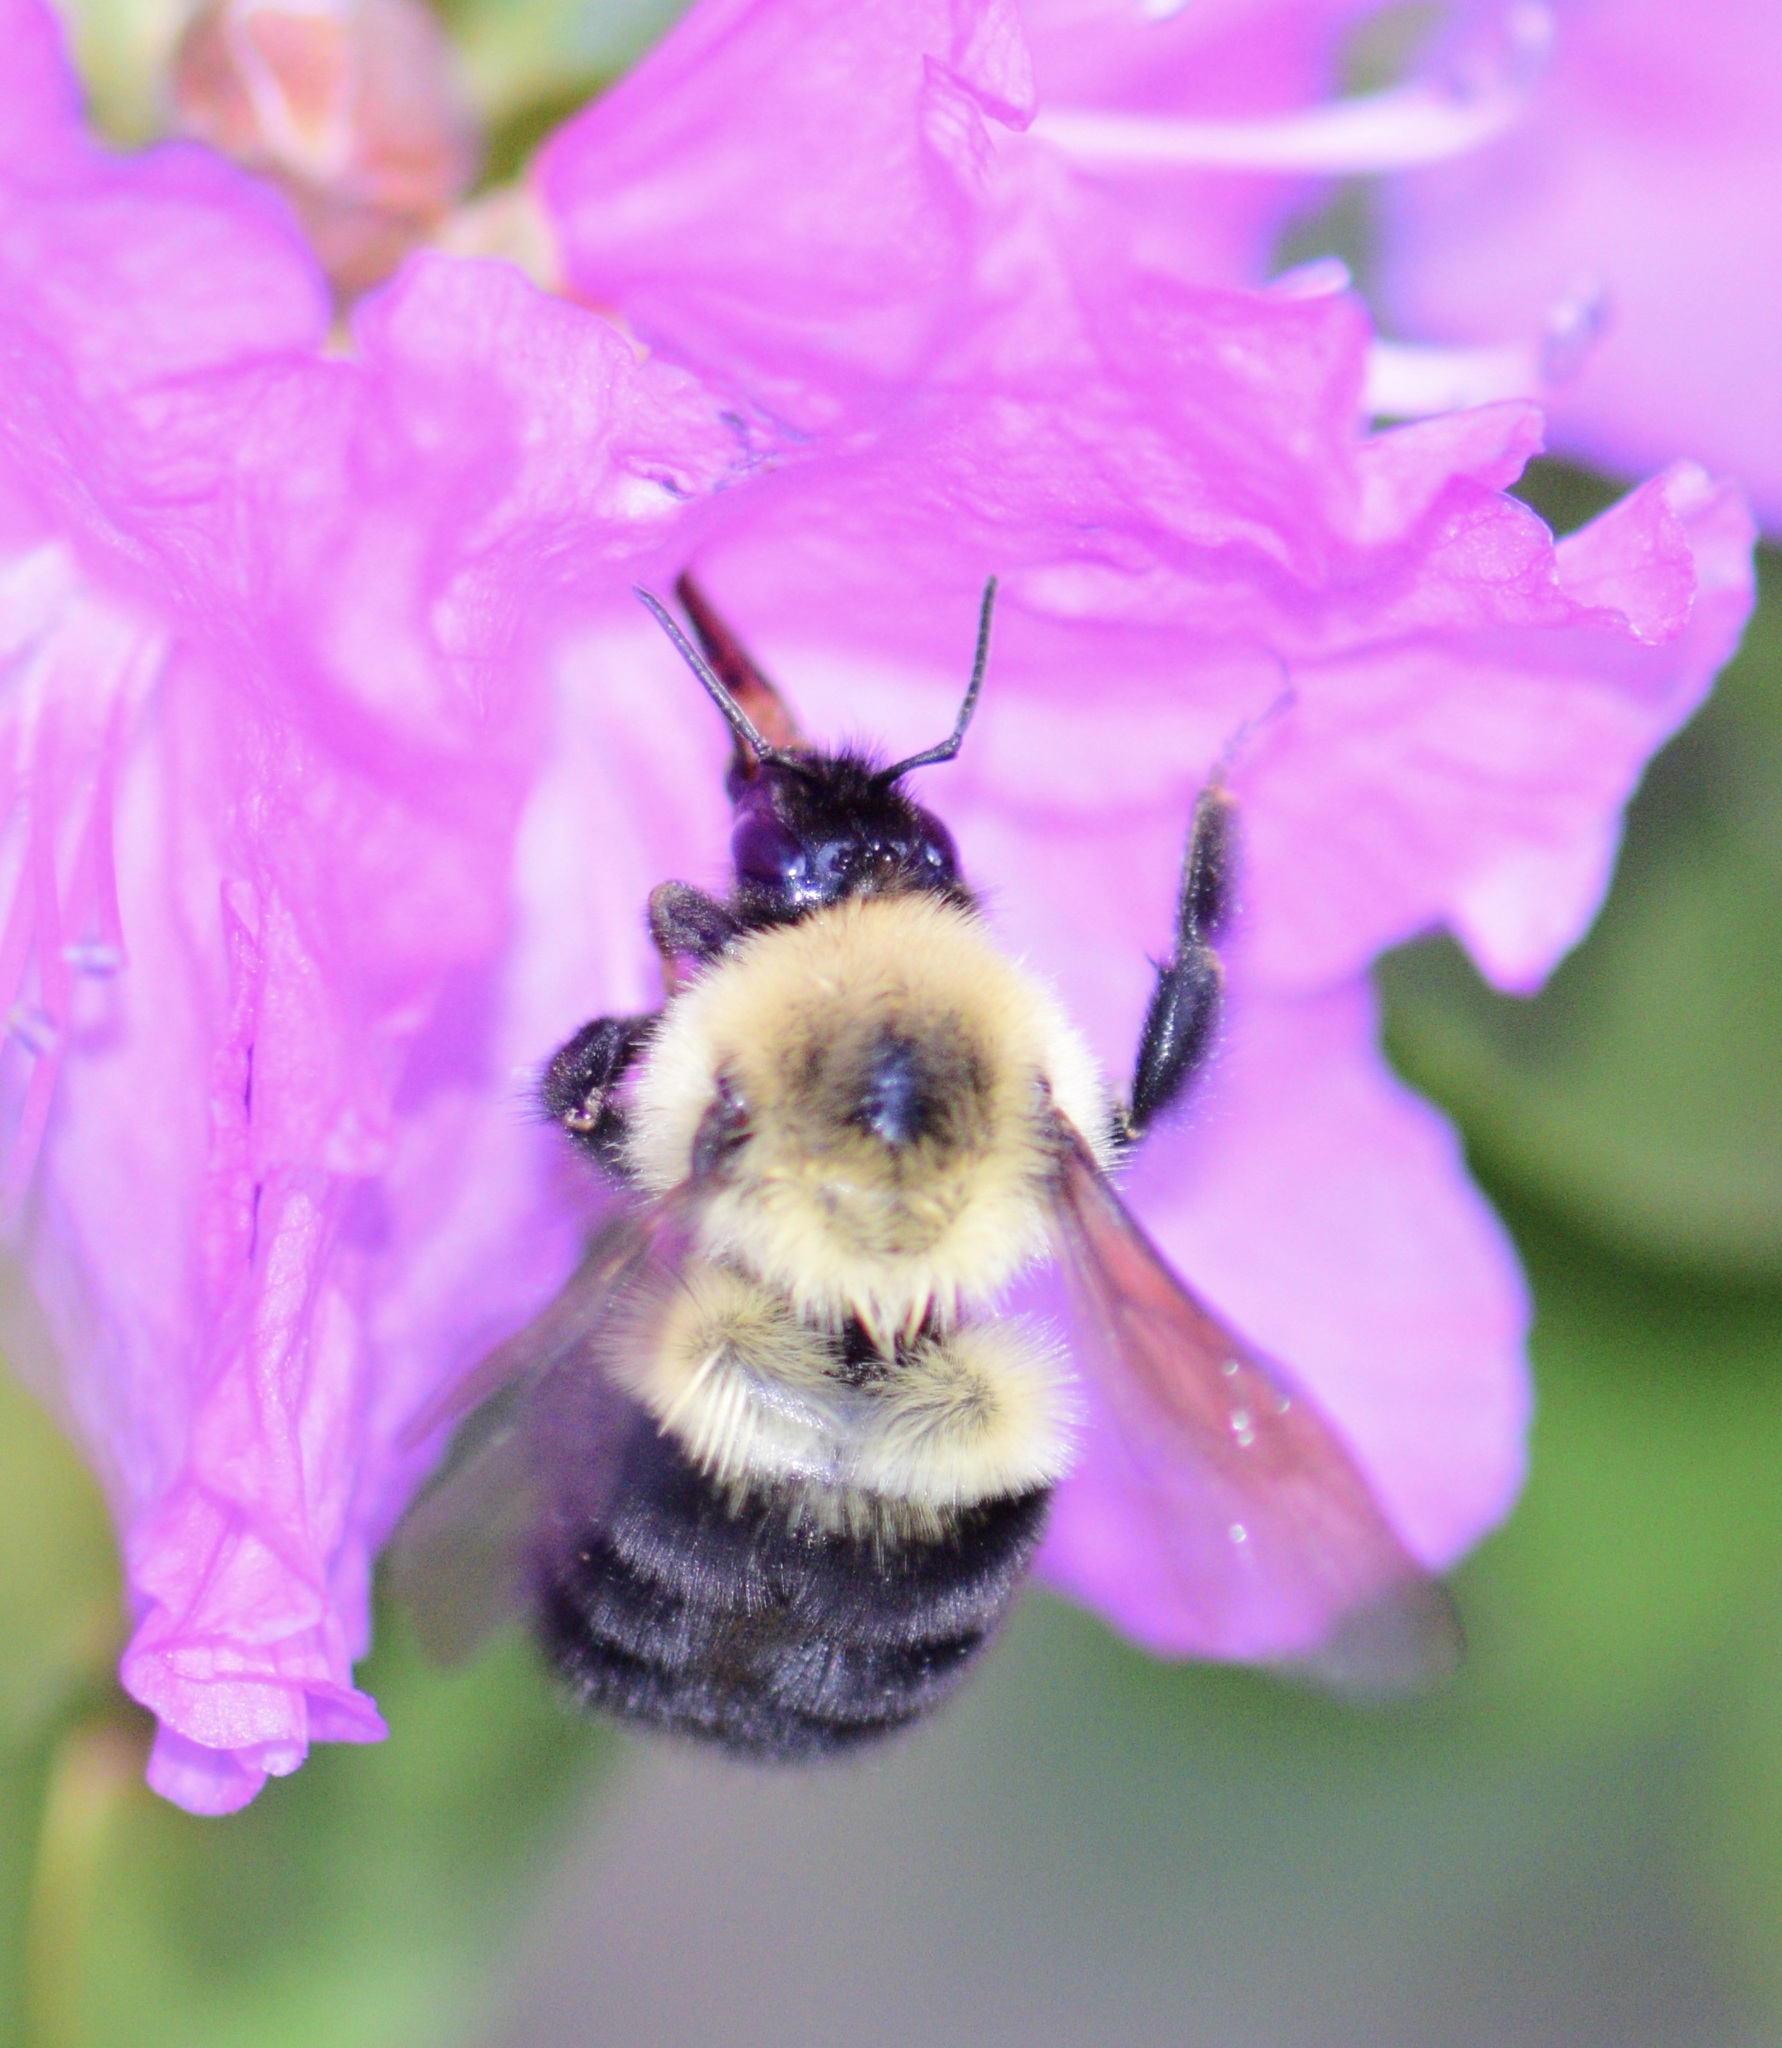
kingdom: Animalia
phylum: Arthropoda
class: Insecta
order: Hymenoptera
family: Apidae
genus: Bombus
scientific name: Bombus bimaculatus
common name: Two-spotted bumble bee
